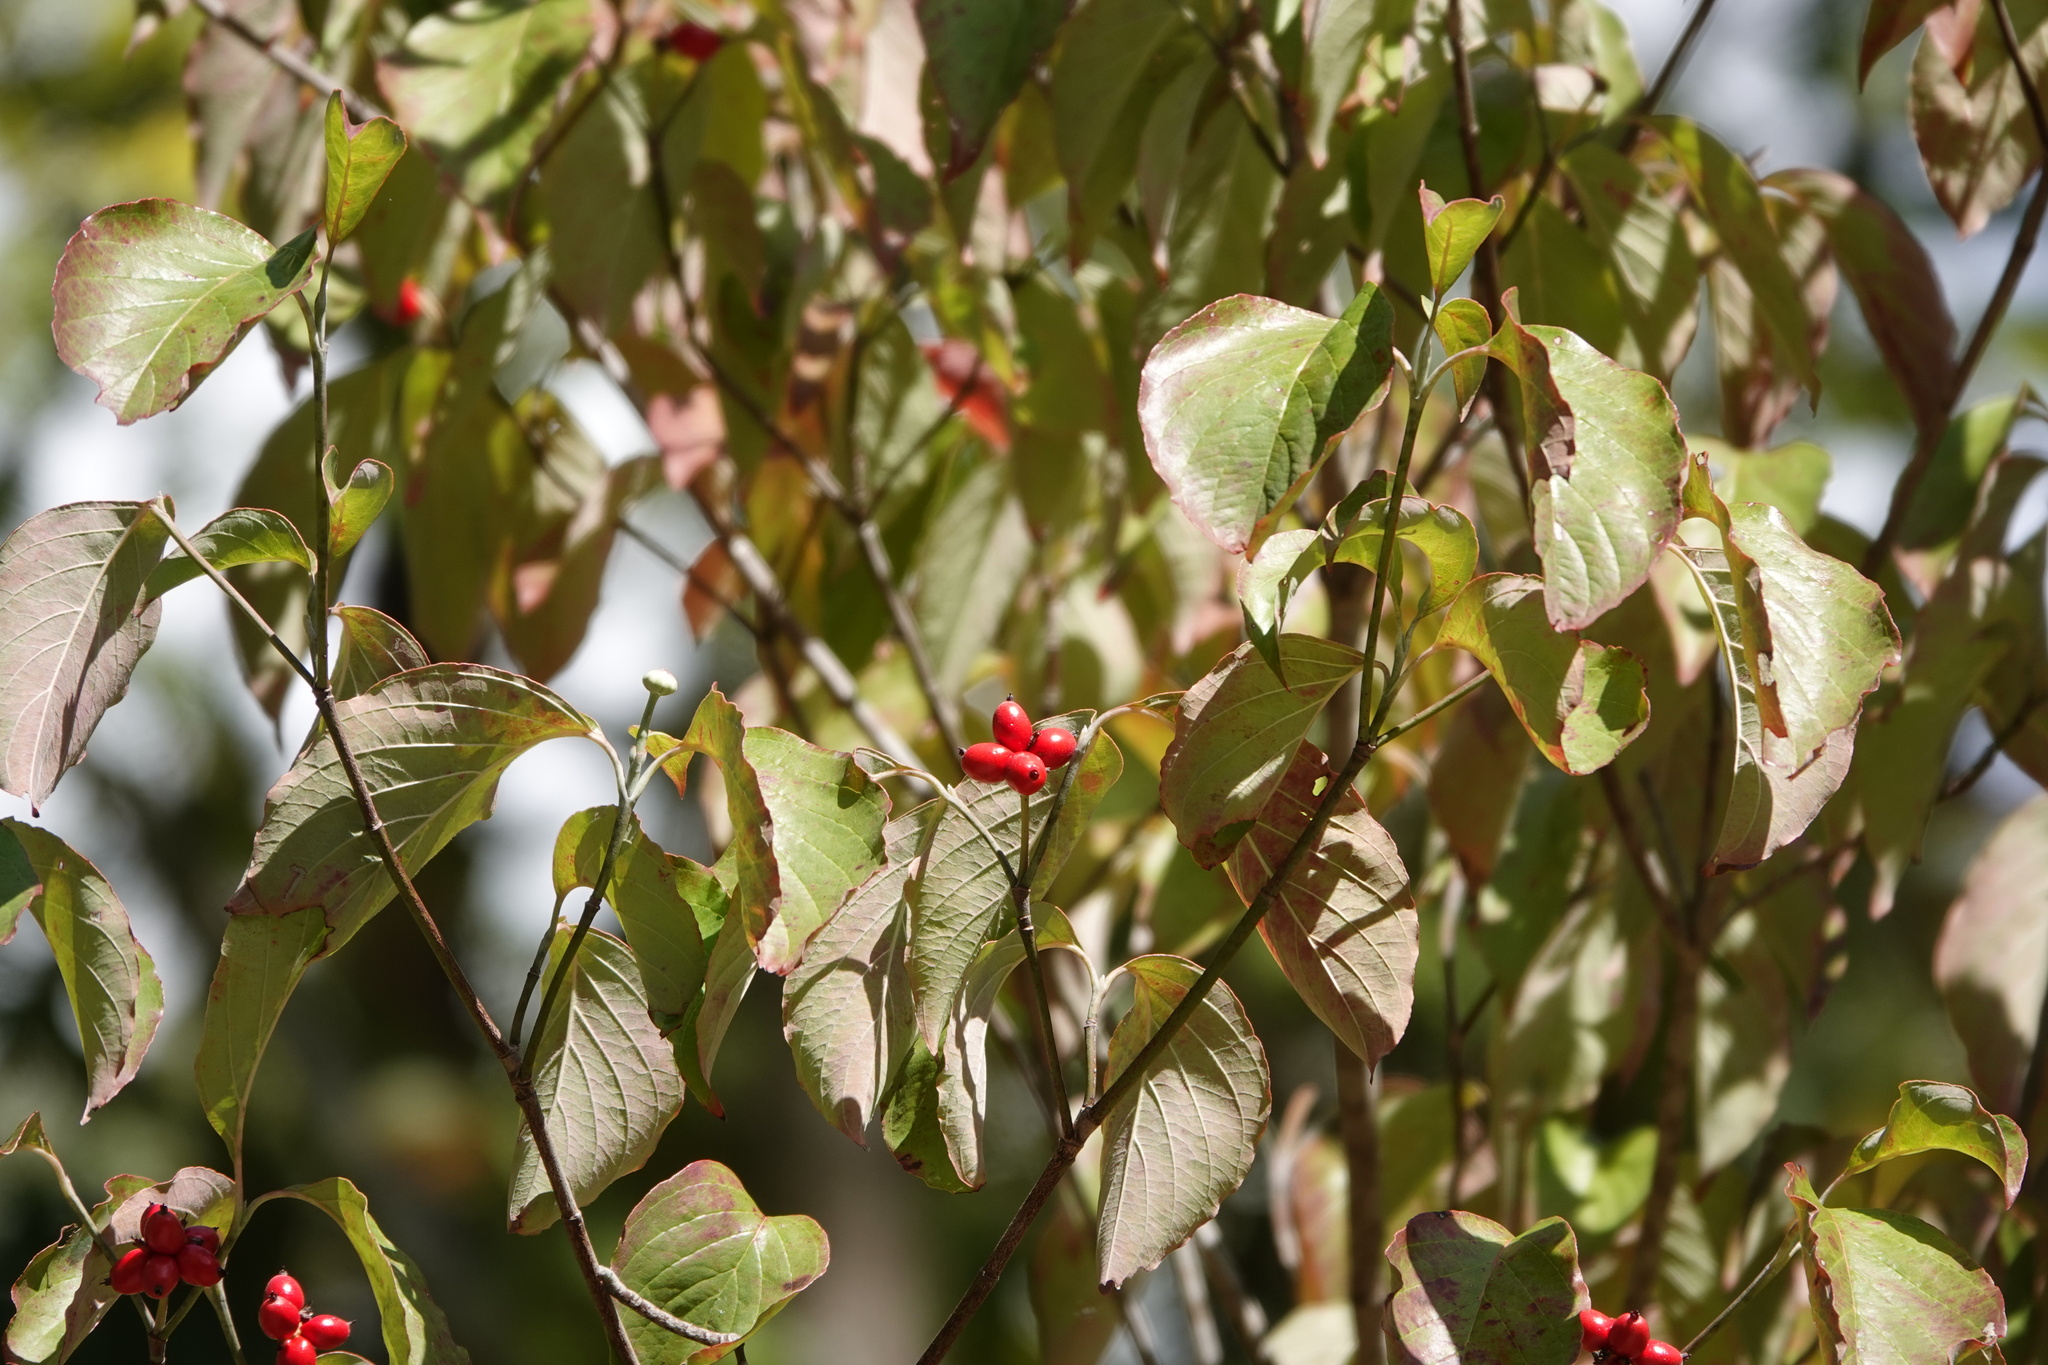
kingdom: Plantae
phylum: Tracheophyta
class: Magnoliopsida
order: Cornales
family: Cornaceae
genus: Cornus
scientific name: Cornus florida
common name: Flowering dogwood
